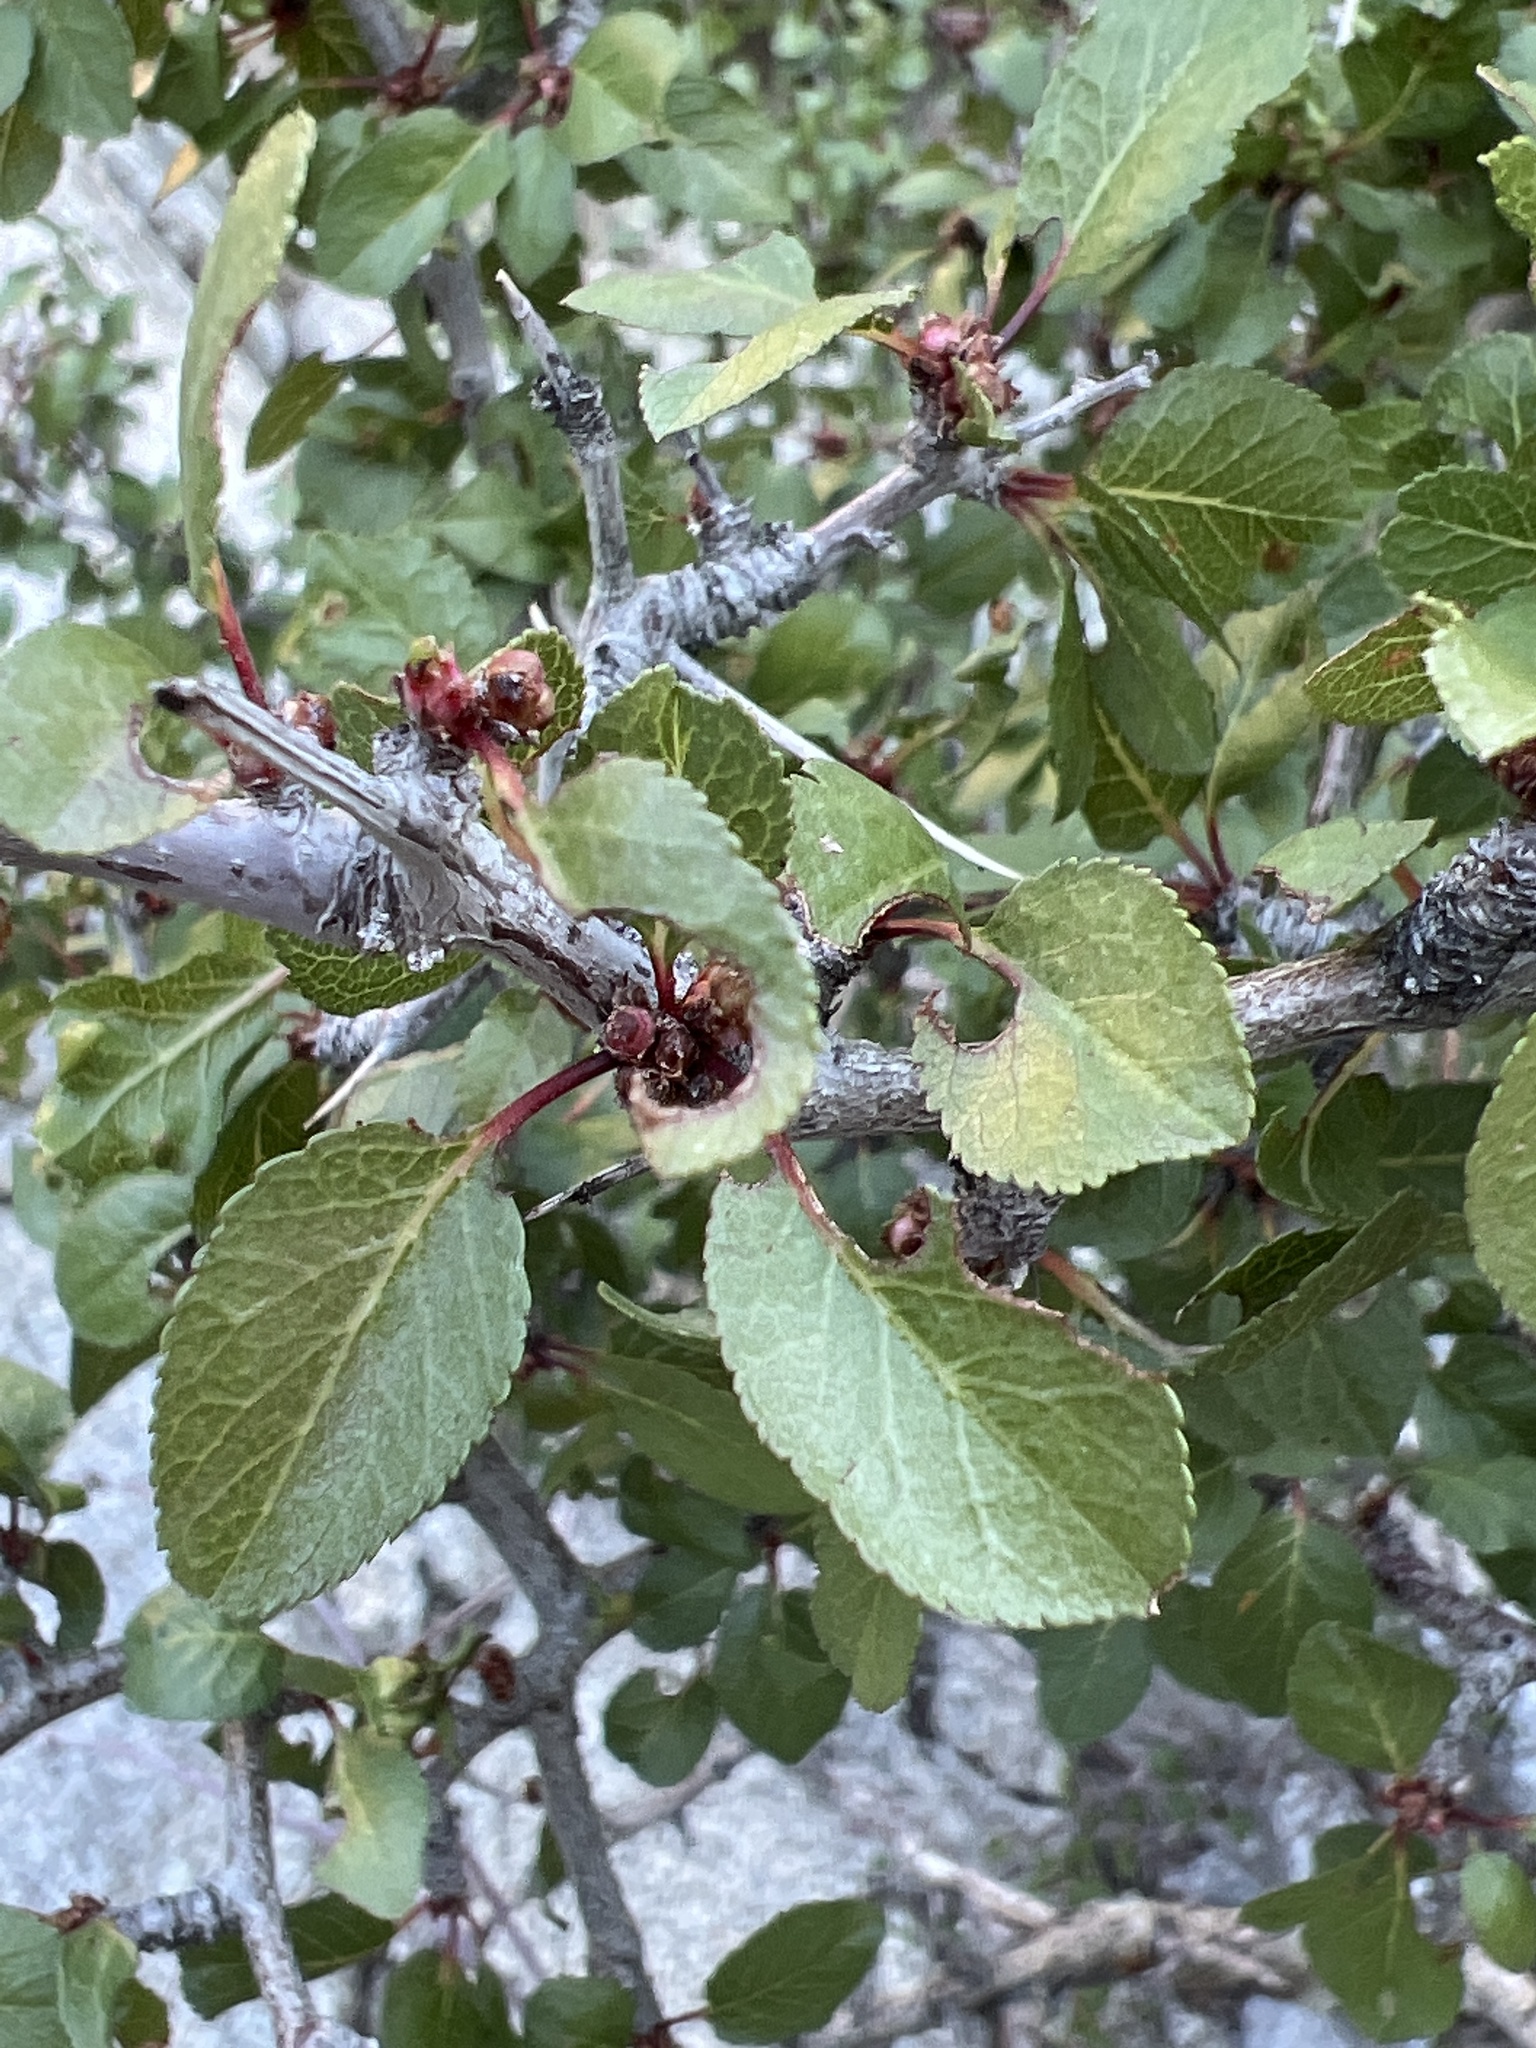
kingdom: Plantae
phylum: Tracheophyta
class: Magnoliopsida
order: Rosales
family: Rosaceae
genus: Prunus
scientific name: Prunus fremontii
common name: Desert apricot
